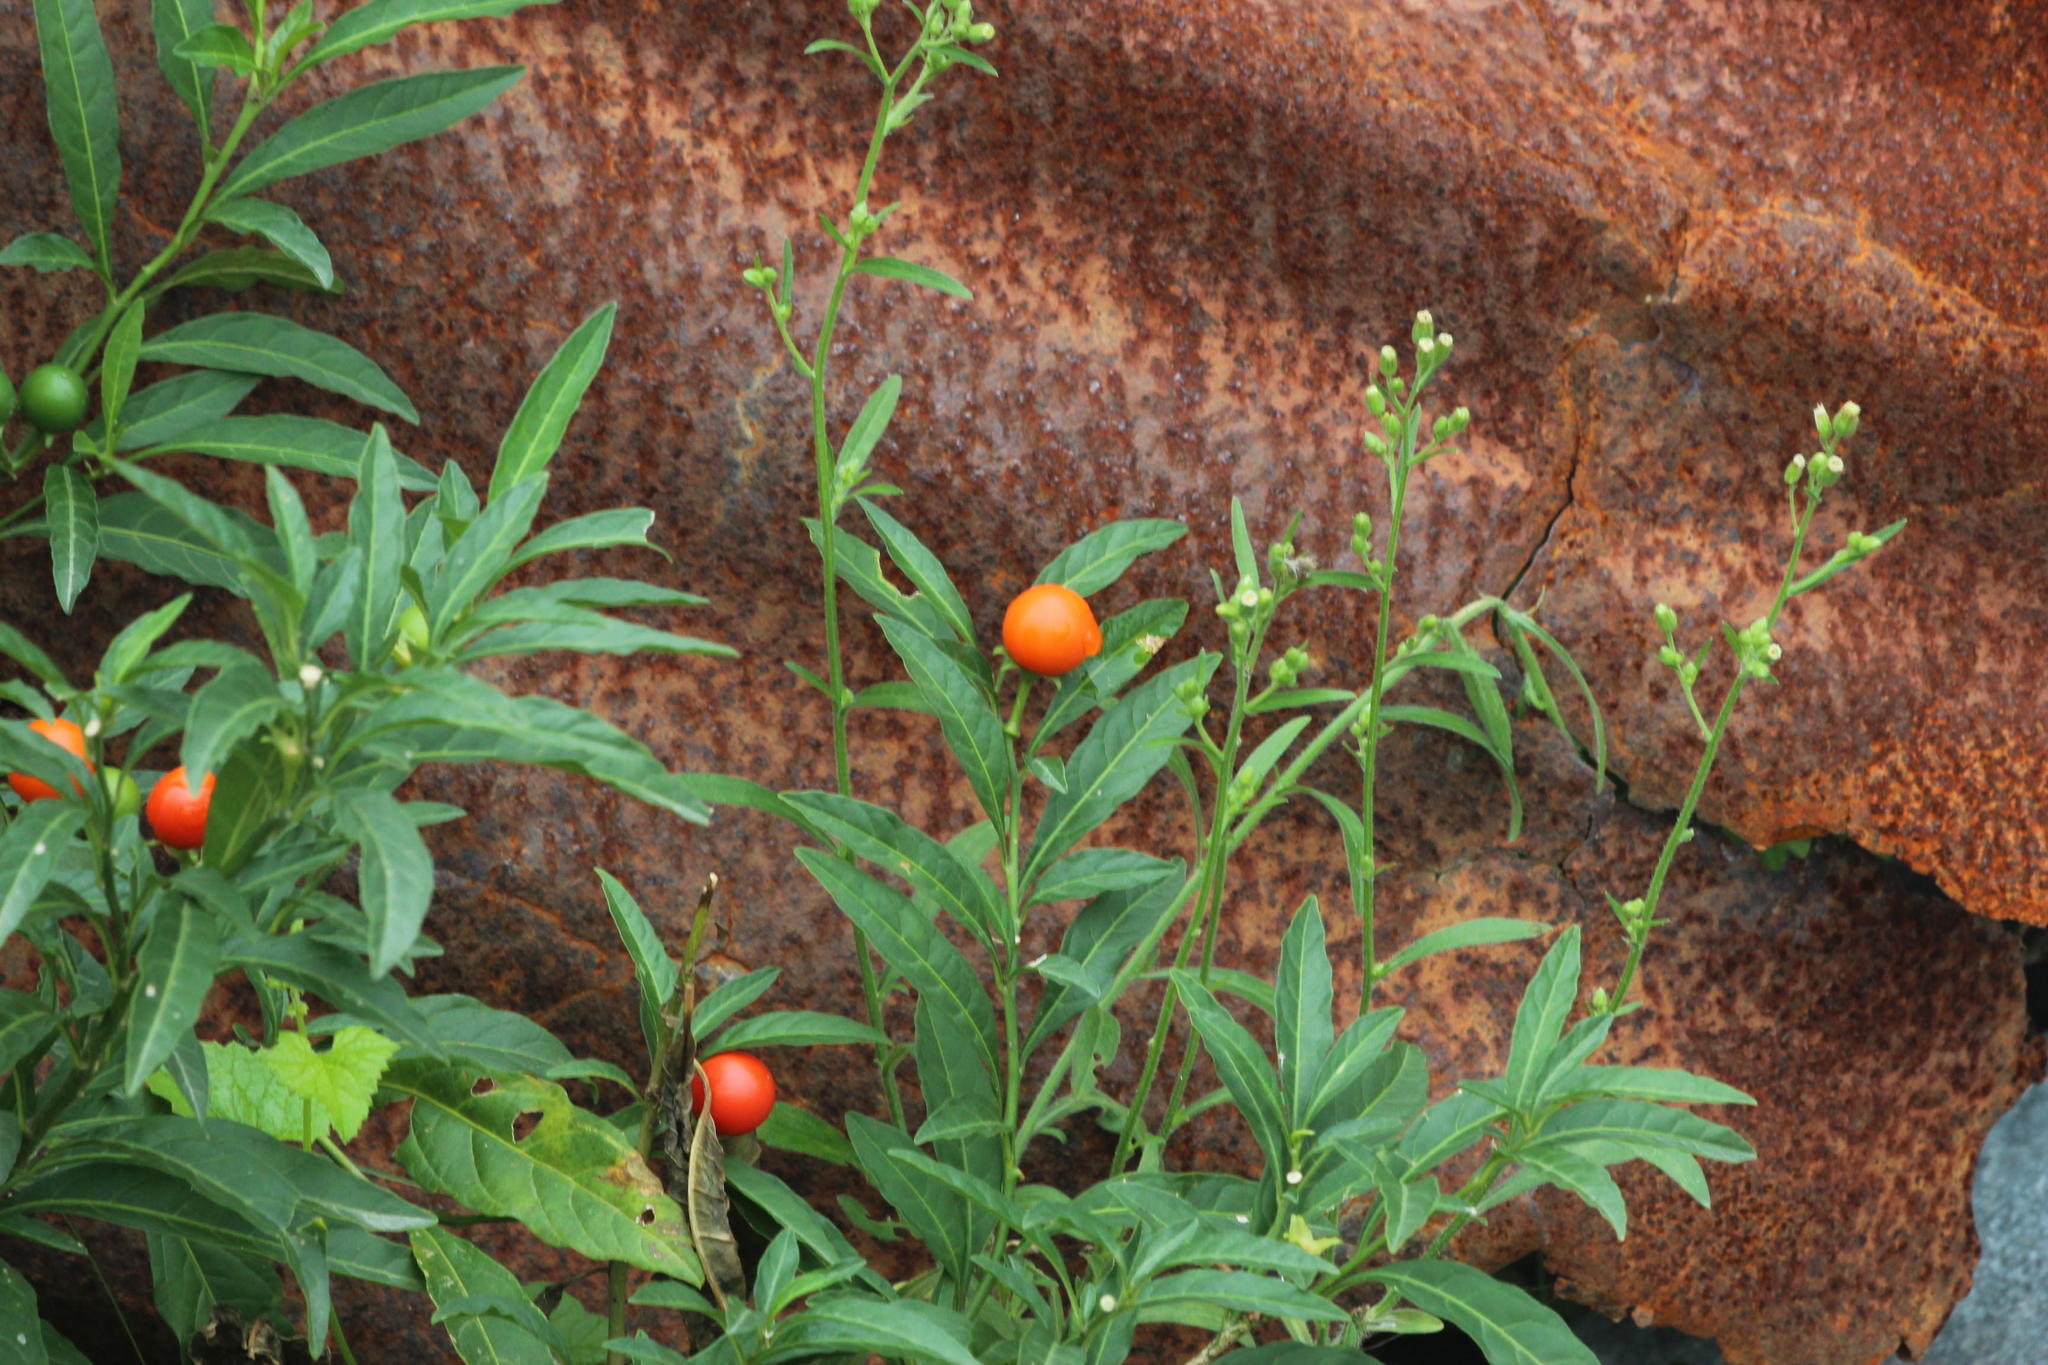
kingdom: Plantae
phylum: Tracheophyta
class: Magnoliopsida
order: Solanales
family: Solanaceae
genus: Solanum
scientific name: Solanum pseudocapsicum
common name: Jerusalem cherry
